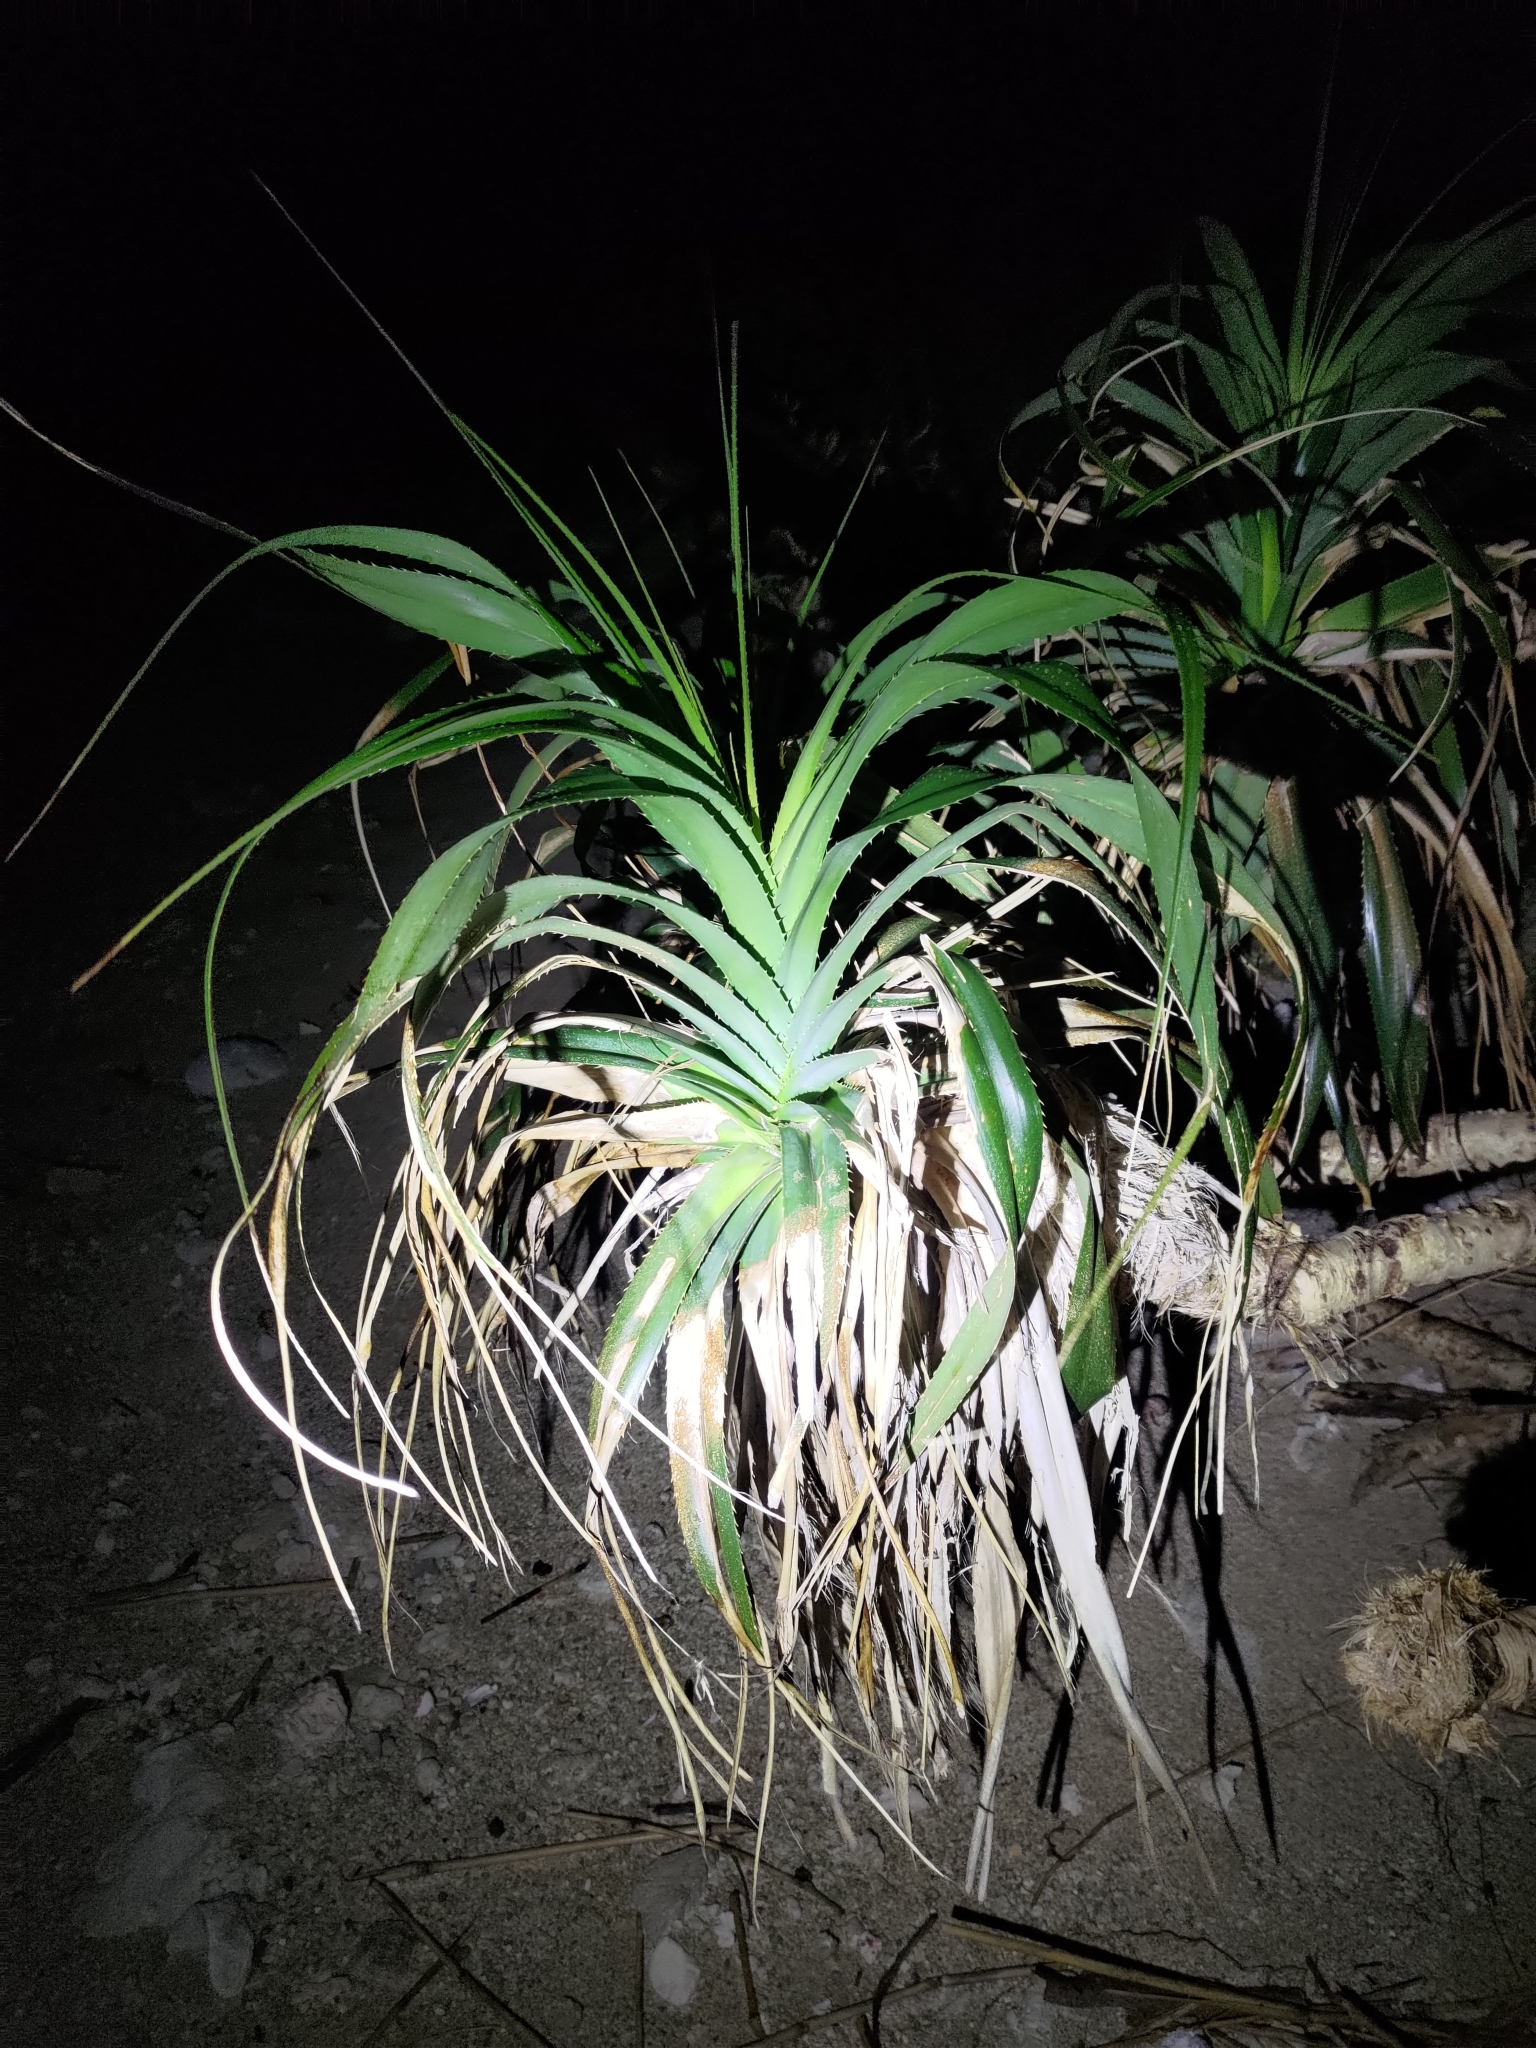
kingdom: Plantae
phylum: Tracheophyta
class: Liliopsida
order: Pandanales
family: Pandanaceae
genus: Pandanus
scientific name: Pandanus odorifer
